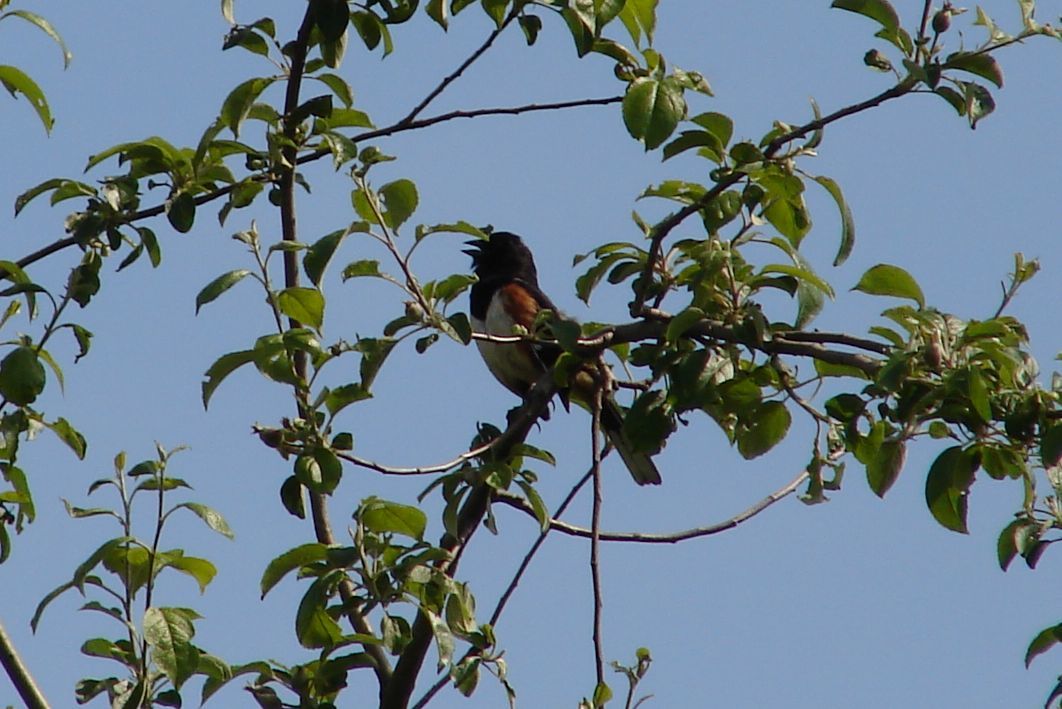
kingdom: Animalia
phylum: Chordata
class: Aves
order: Passeriformes
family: Passerellidae
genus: Pipilo
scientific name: Pipilo erythrophthalmus
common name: Eastern towhee
